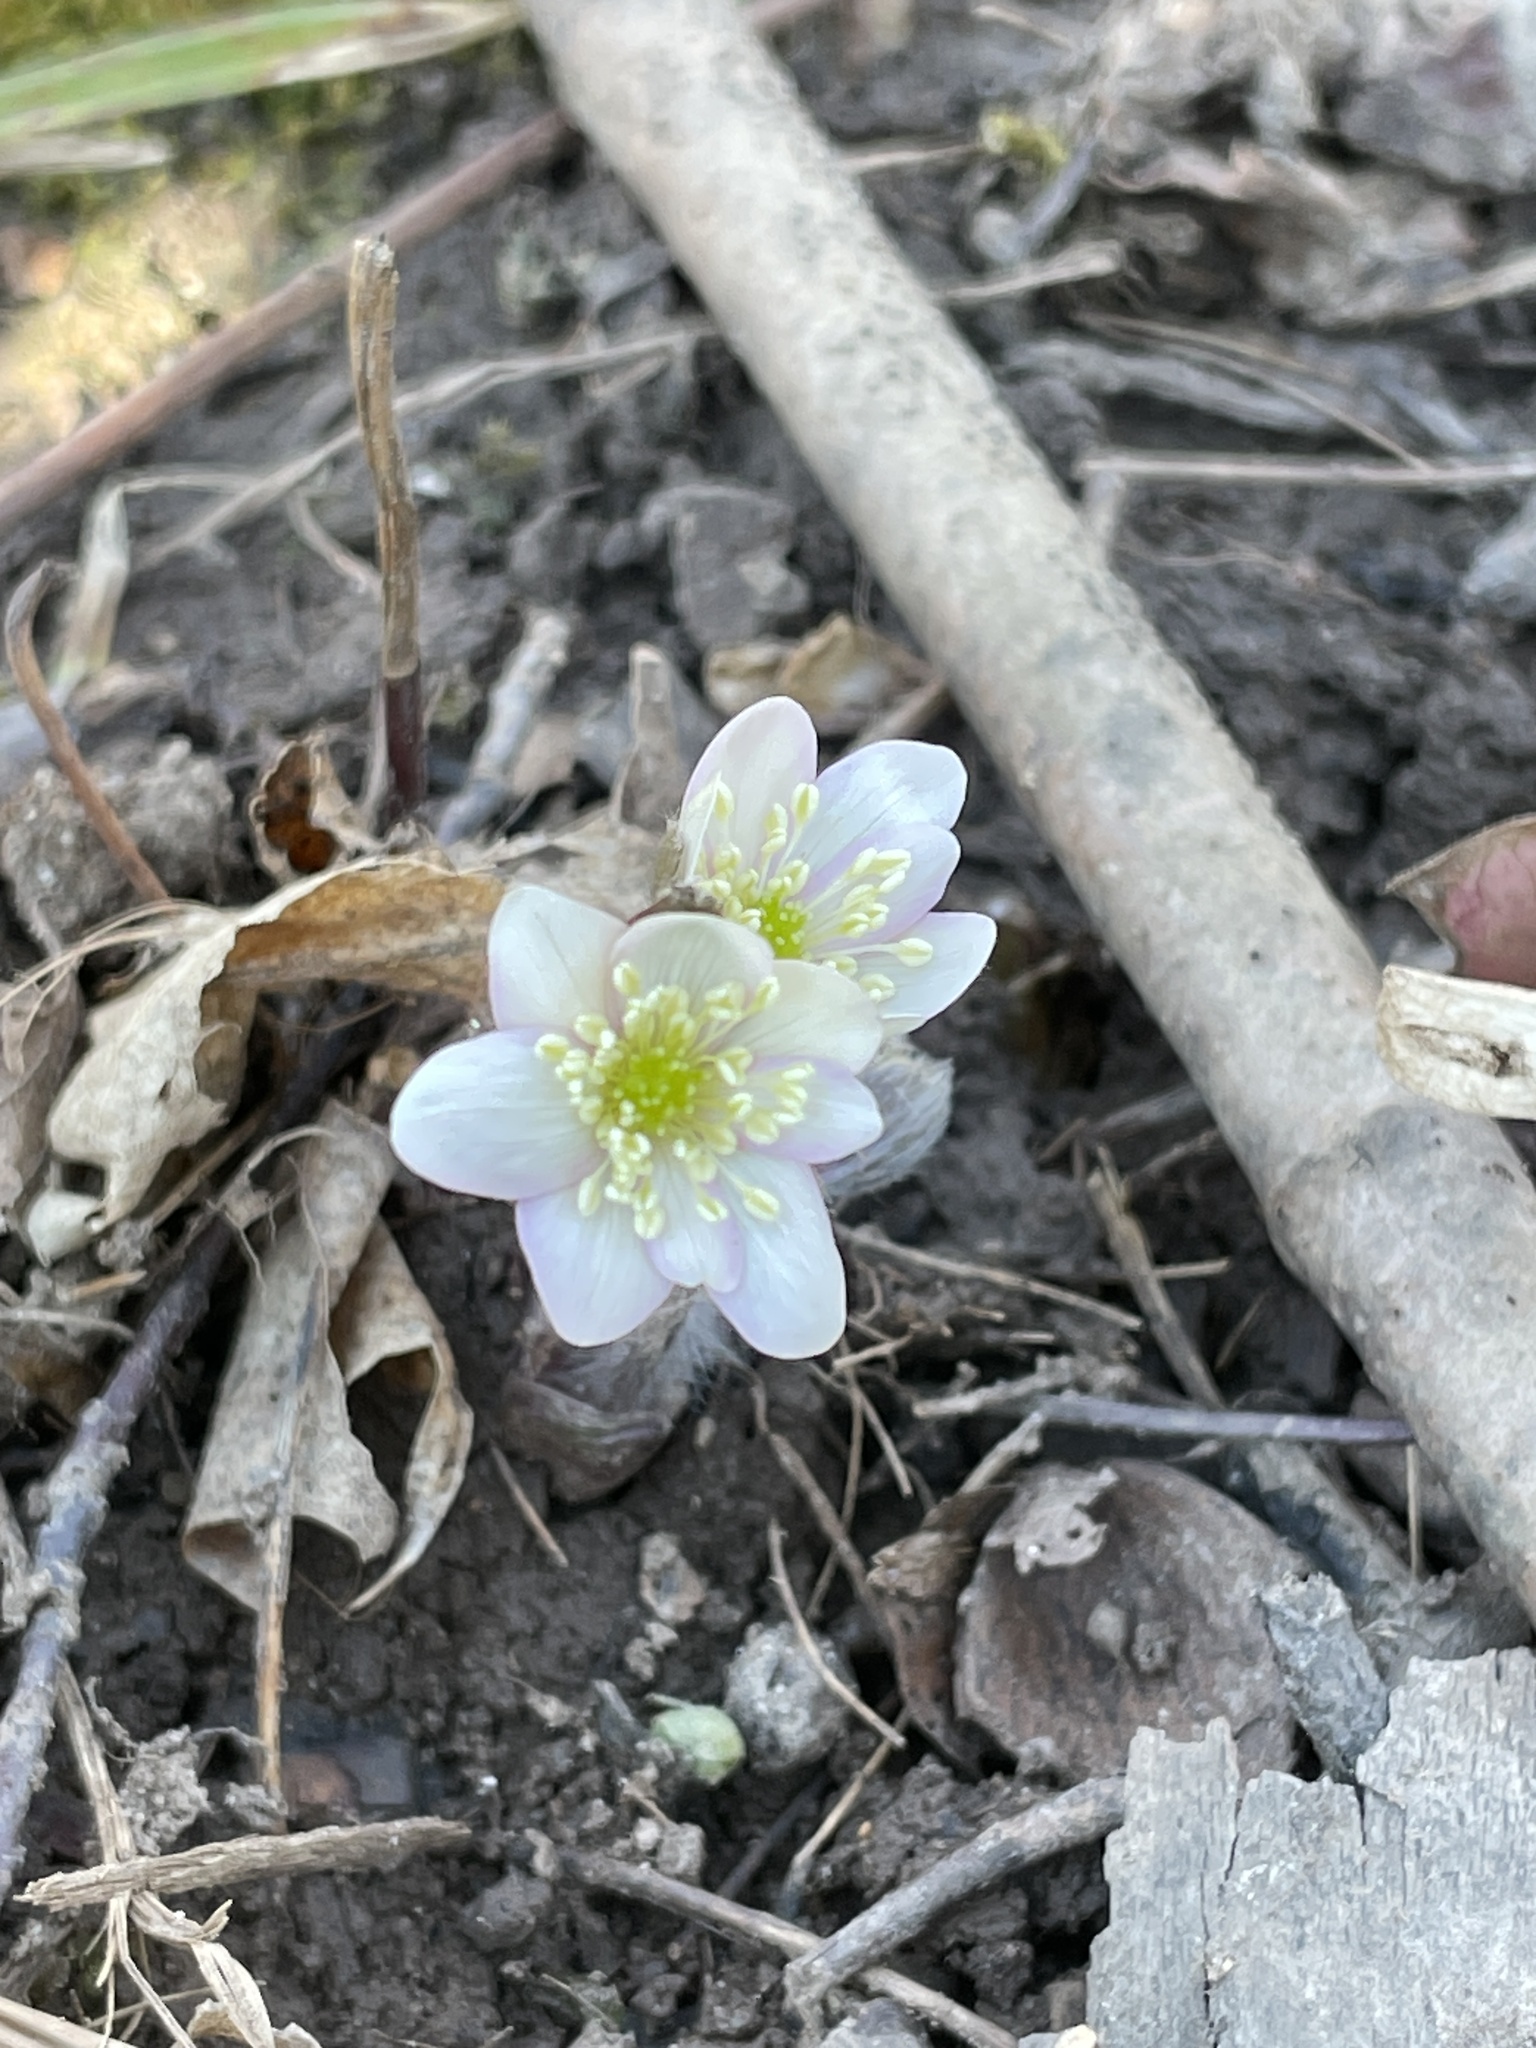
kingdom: Plantae
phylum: Tracheophyta
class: Magnoliopsida
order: Ranunculales
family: Ranunculaceae
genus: Hepatica
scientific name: Hepatica acutiloba
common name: Sharp-lobed hepatica
